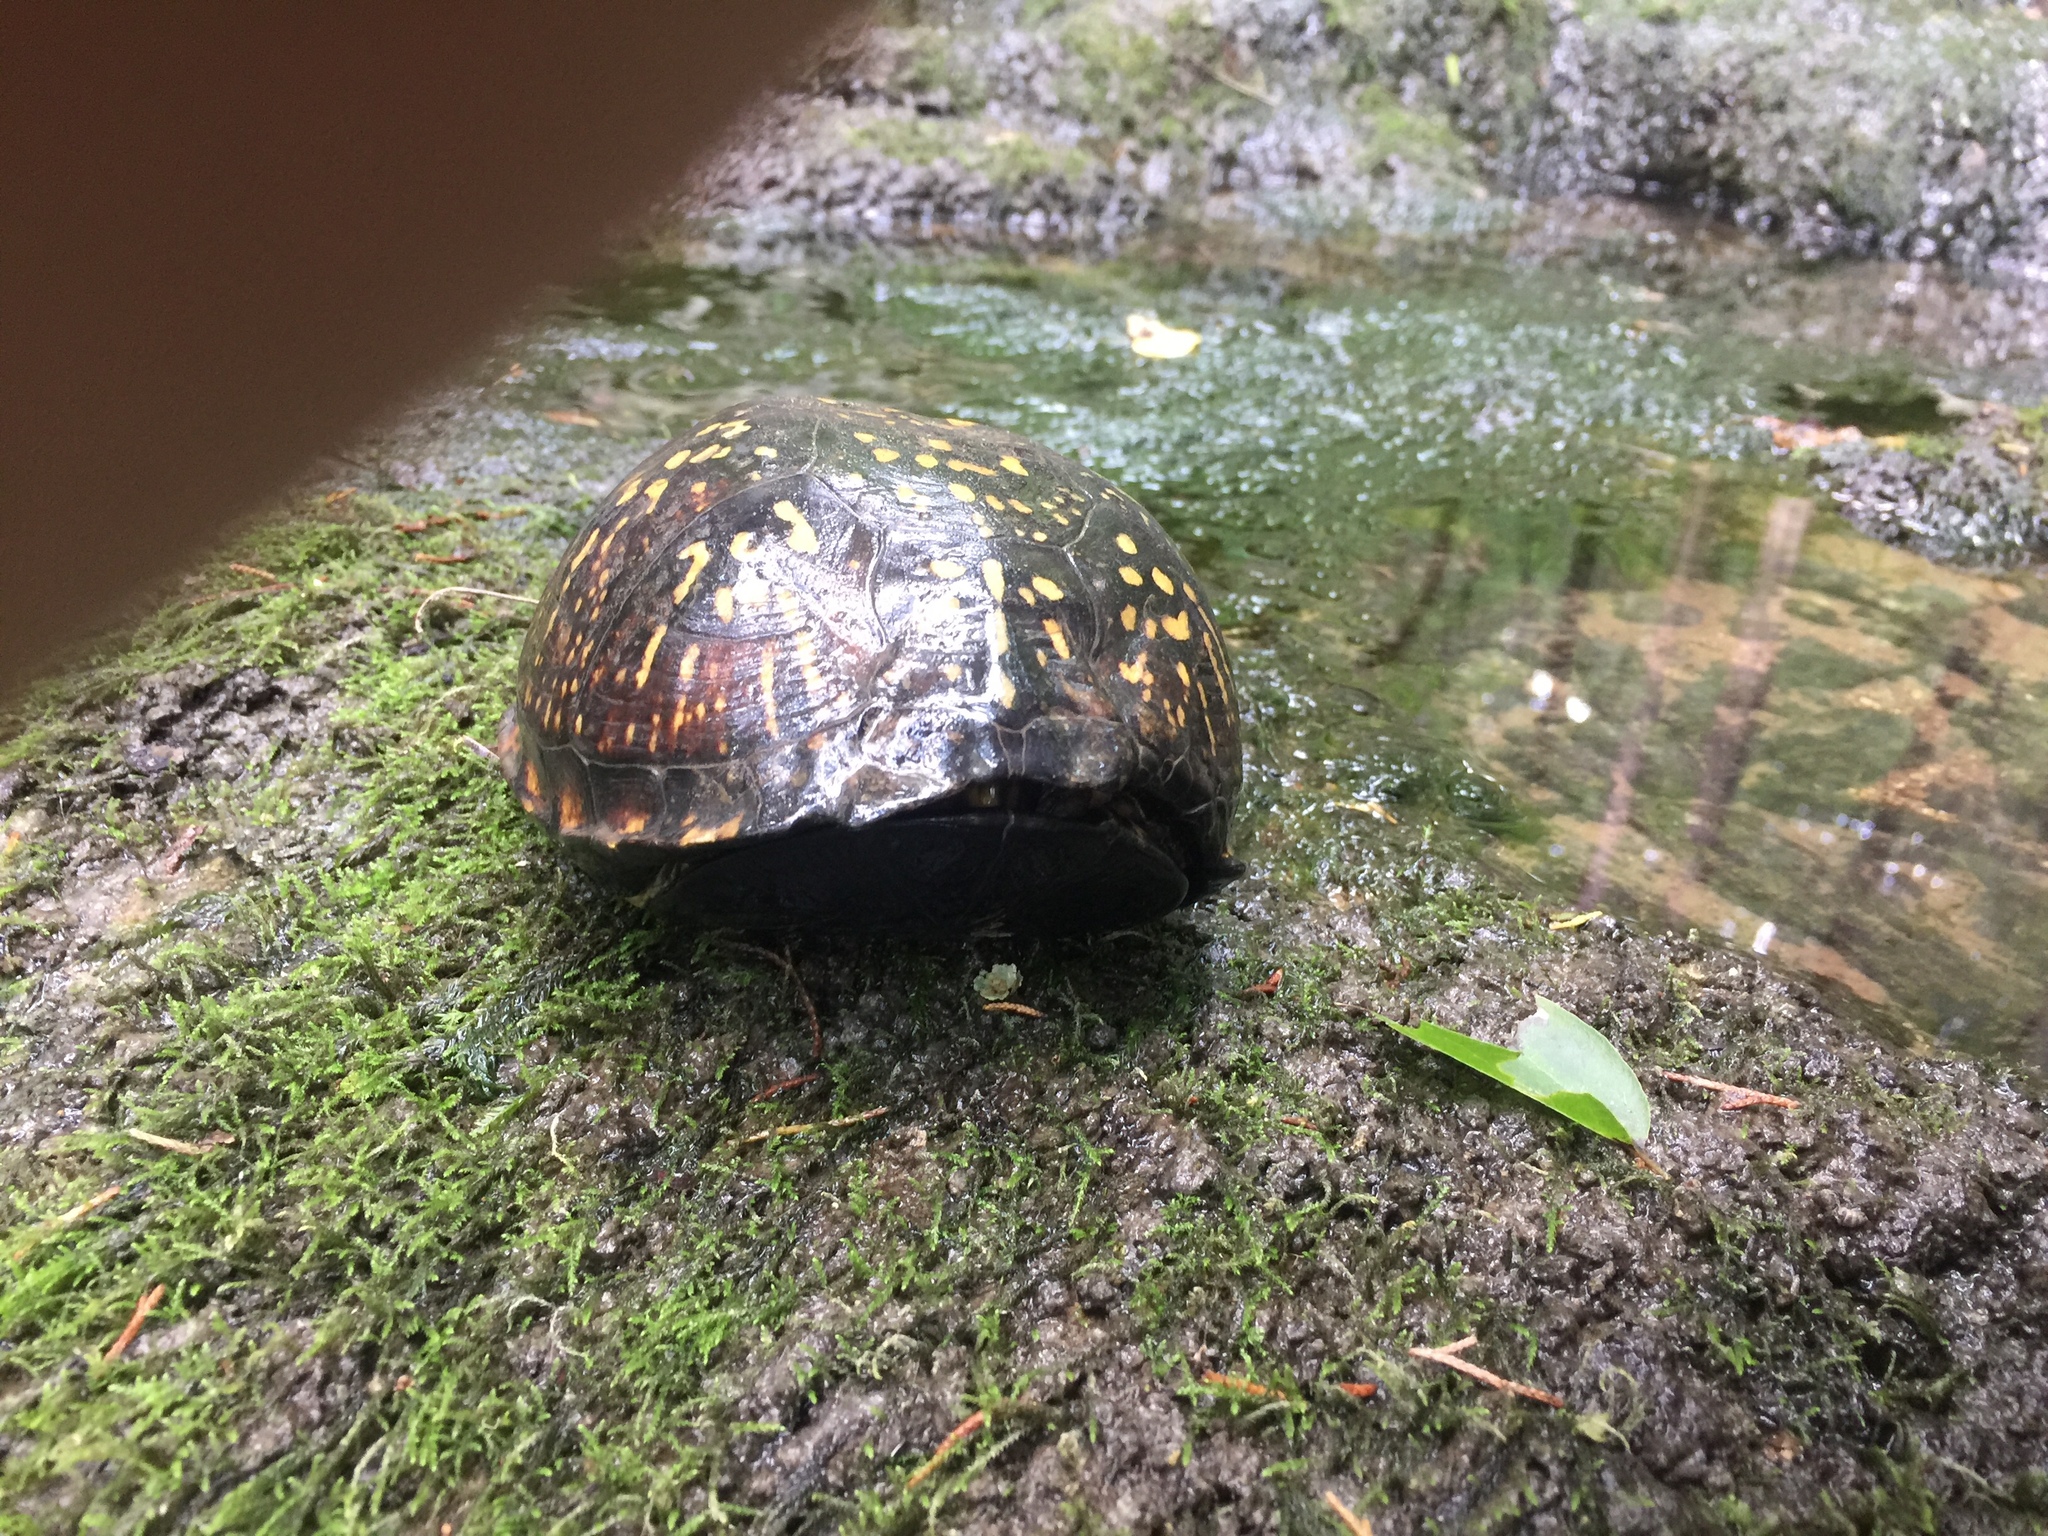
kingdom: Animalia
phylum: Chordata
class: Testudines
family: Emydidae
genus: Terrapene
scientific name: Terrapene carolina
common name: Common box turtle
